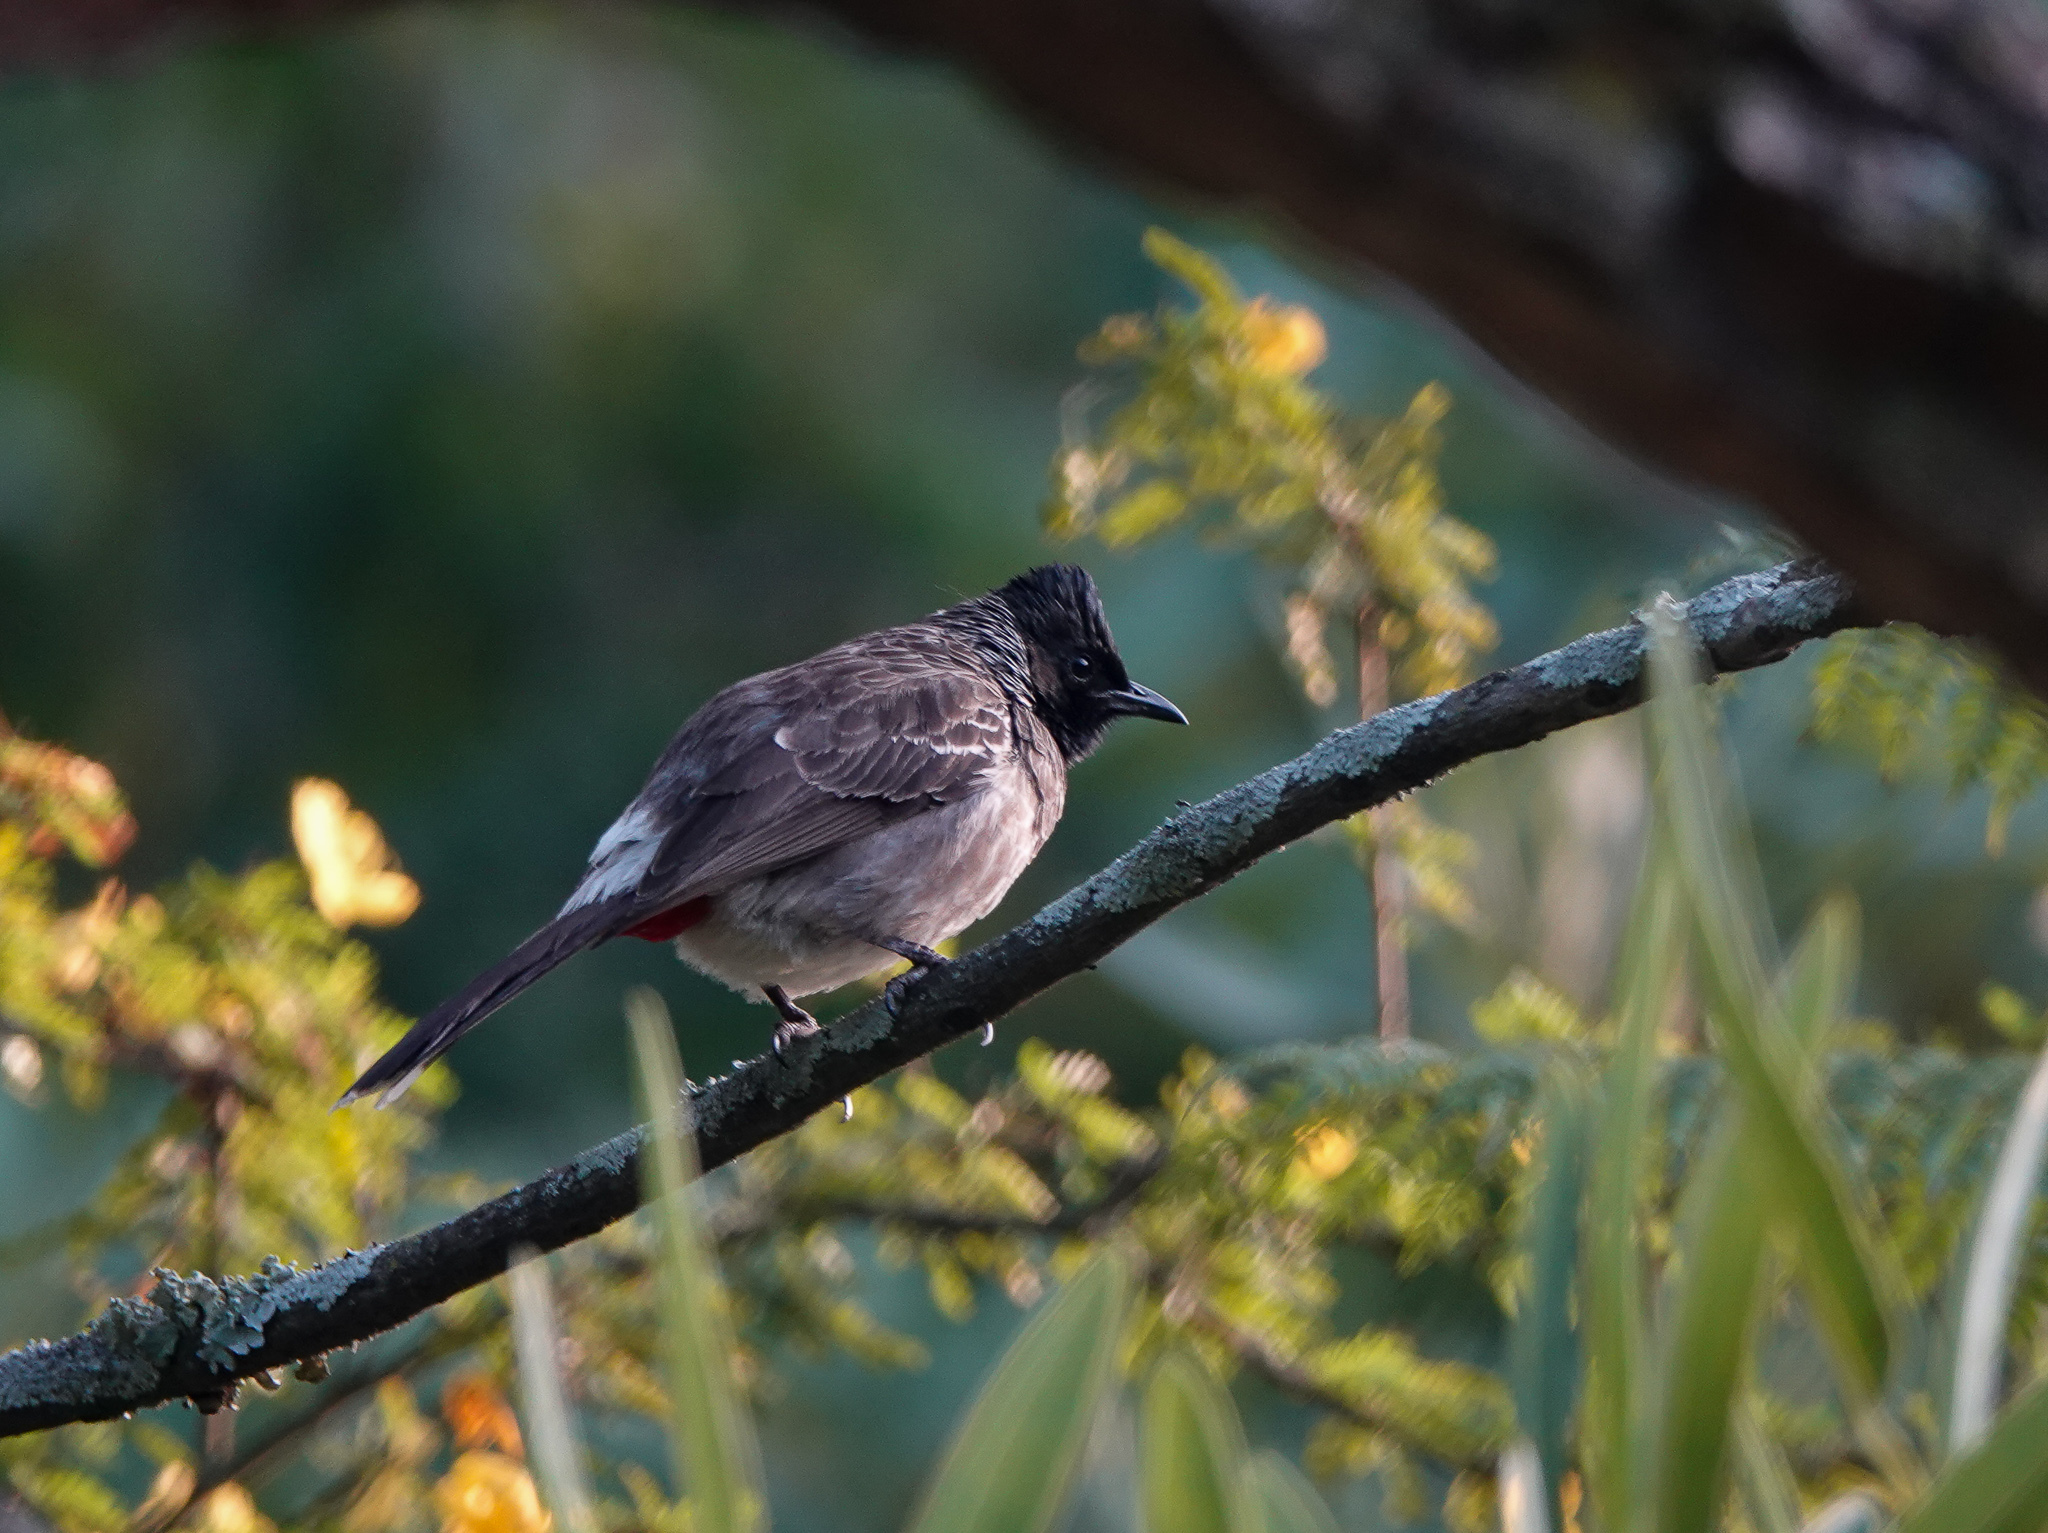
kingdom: Animalia
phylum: Chordata
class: Aves
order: Passeriformes
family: Pycnonotidae
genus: Pycnonotus
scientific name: Pycnonotus cafer
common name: Red-vented bulbul
